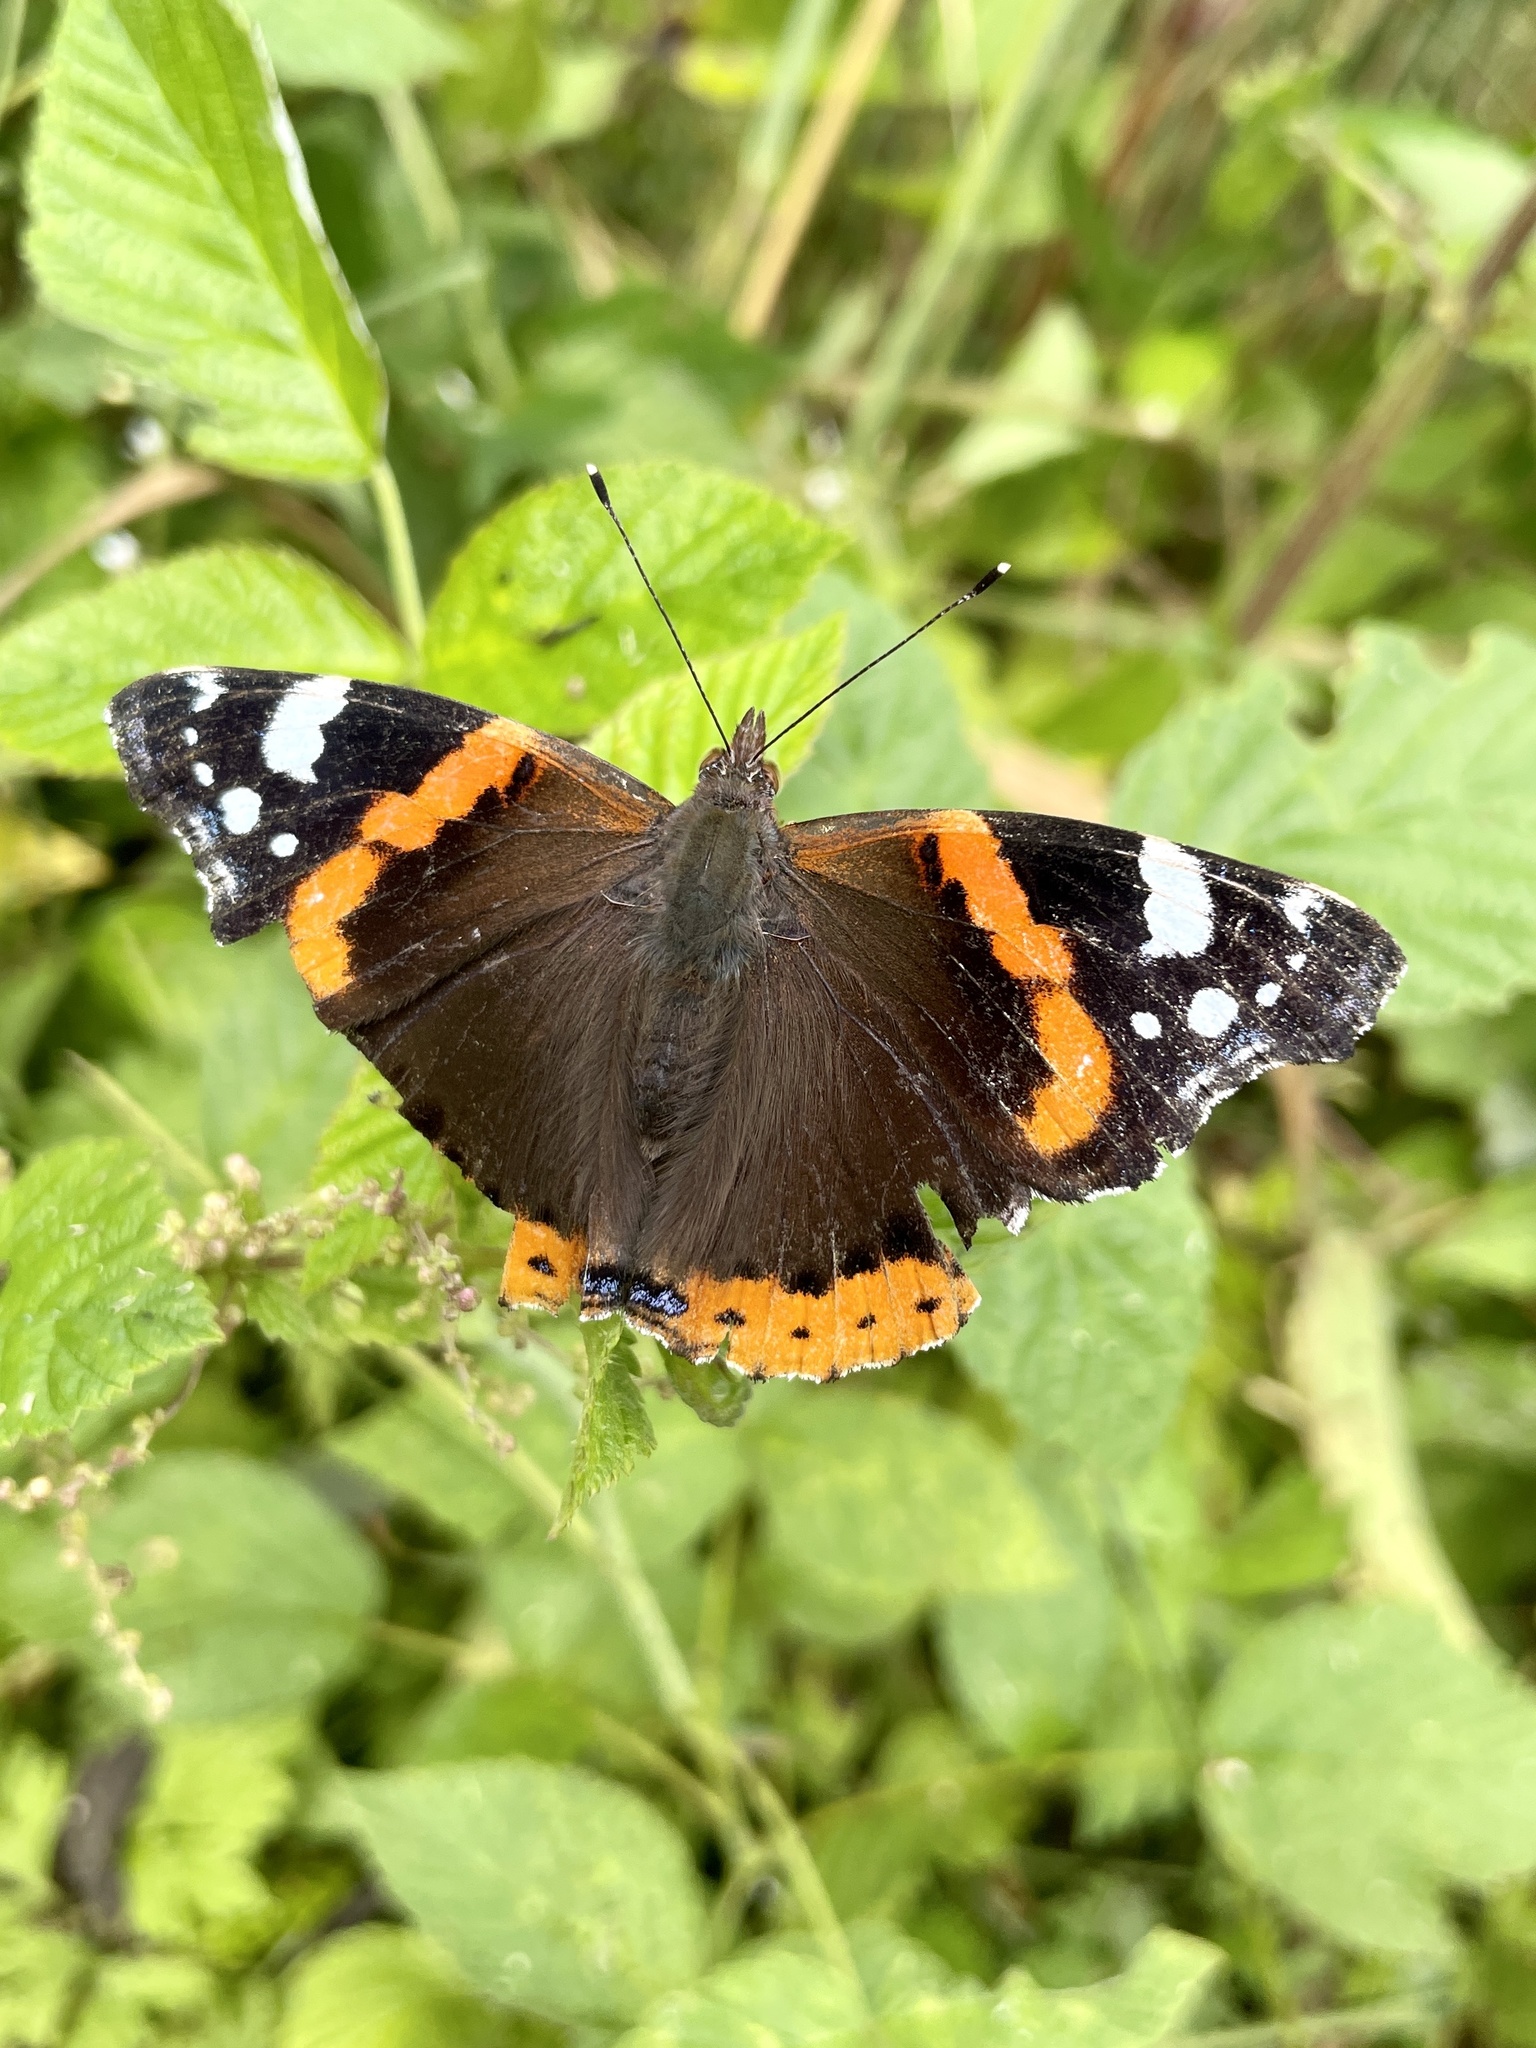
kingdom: Animalia
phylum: Arthropoda
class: Insecta
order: Lepidoptera
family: Nymphalidae
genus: Vanessa
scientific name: Vanessa atalanta
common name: Red admiral
